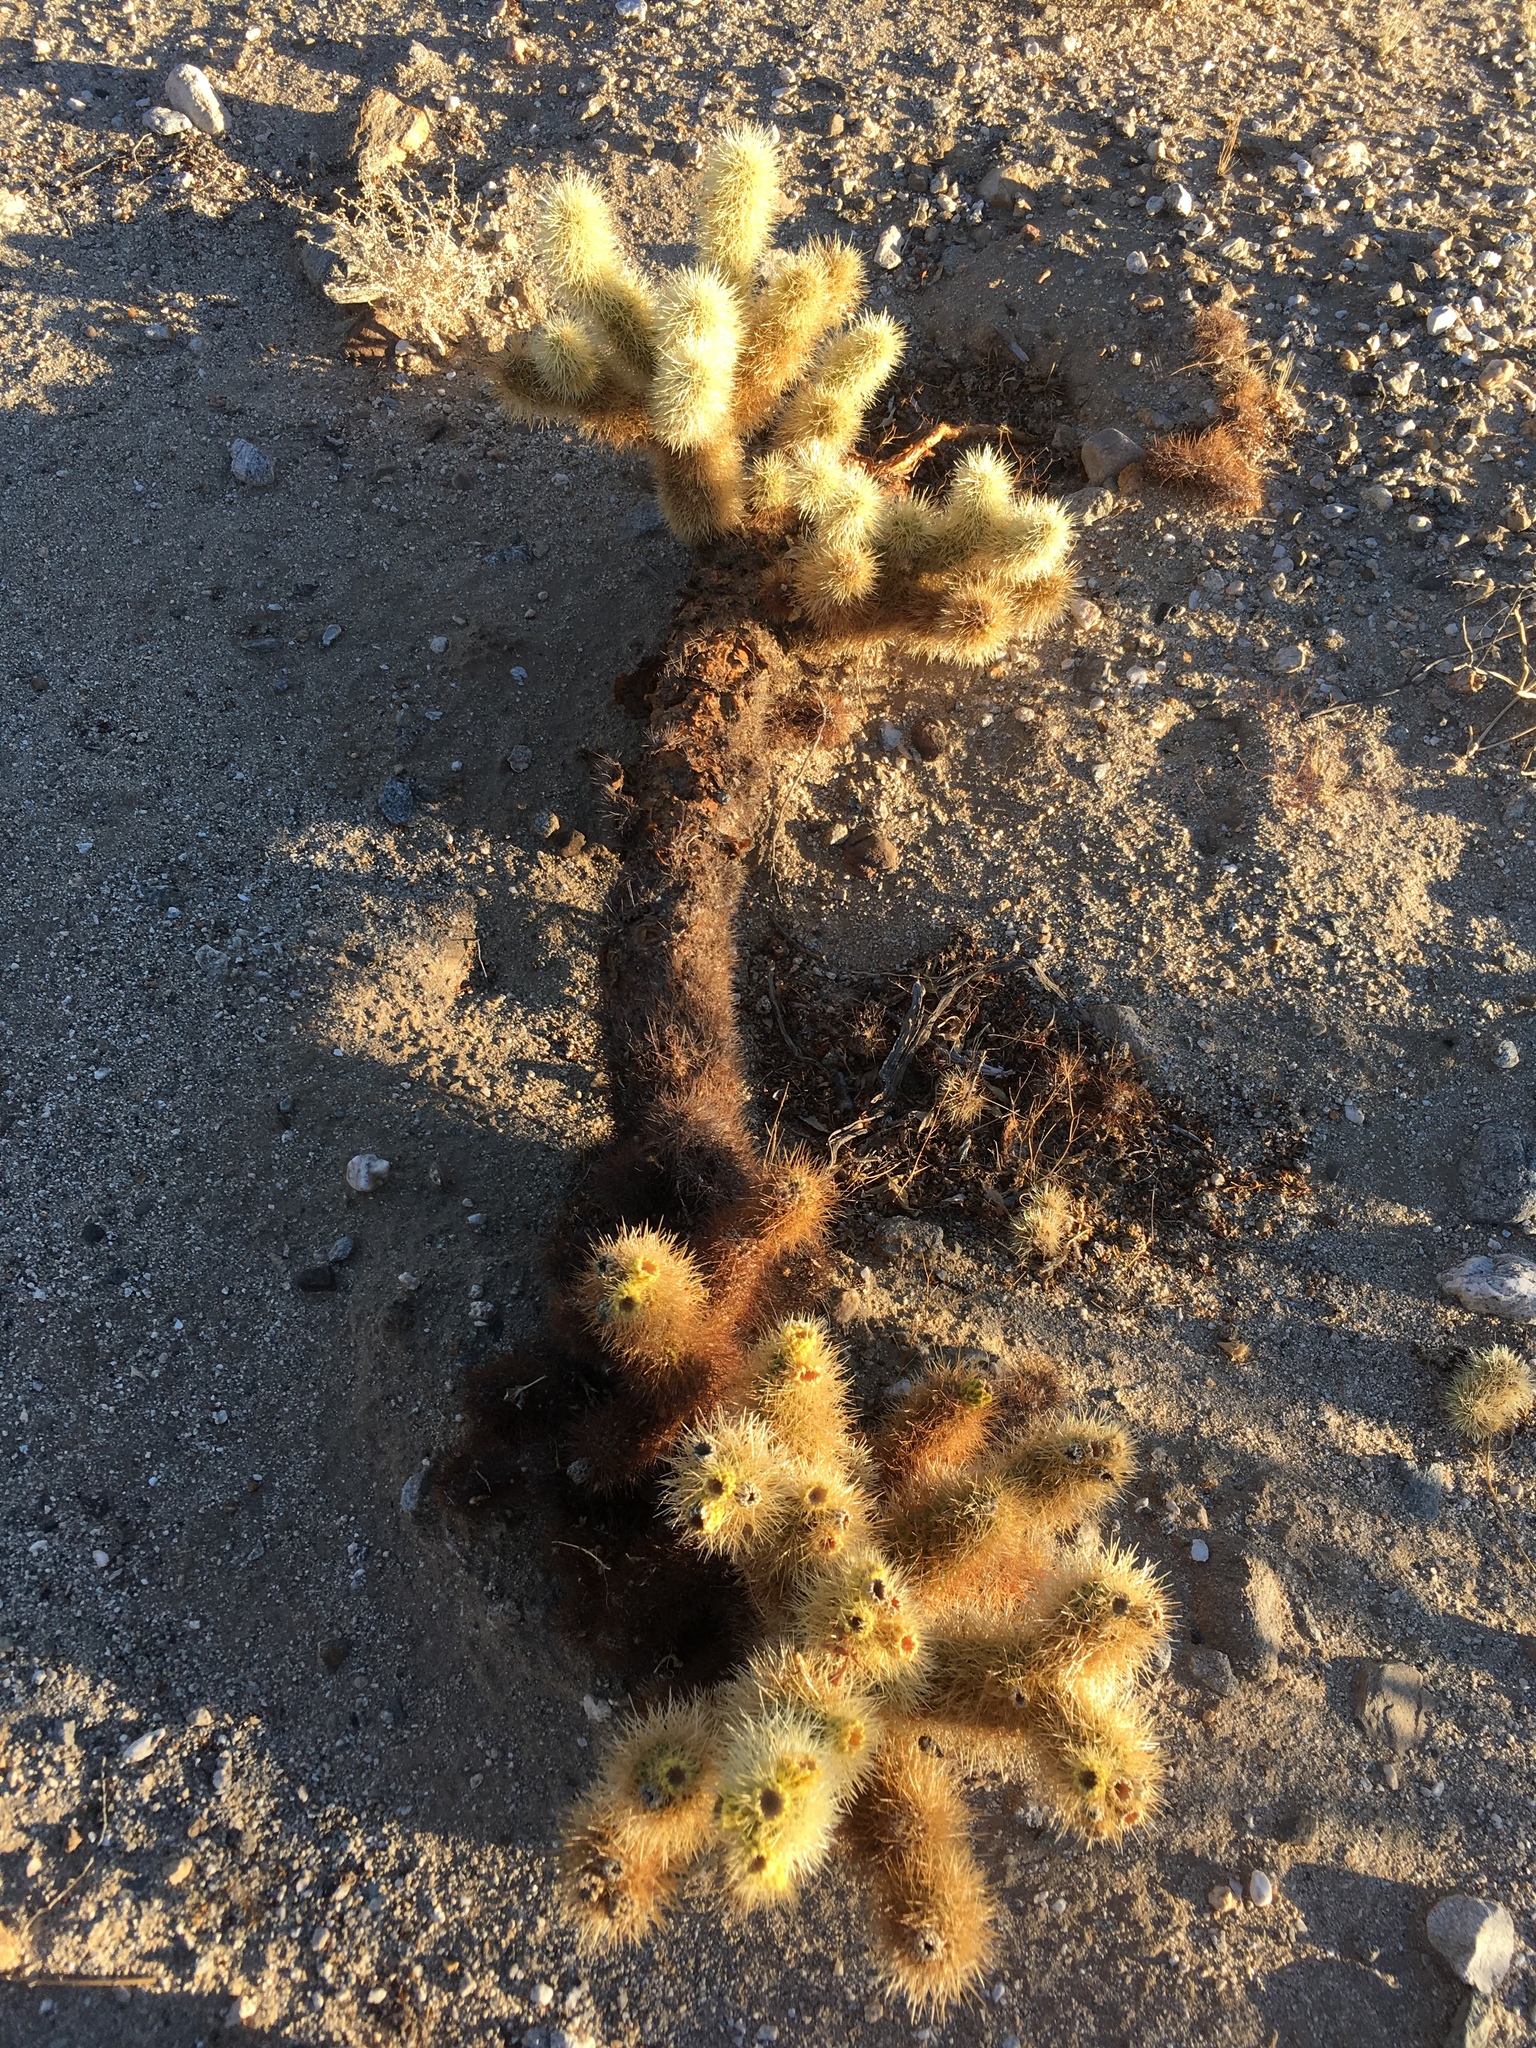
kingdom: Plantae
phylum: Tracheophyta
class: Magnoliopsida
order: Caryophyllales
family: Cactaceae
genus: Cylindropuntia
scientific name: Cylindropuntia fosbergii
